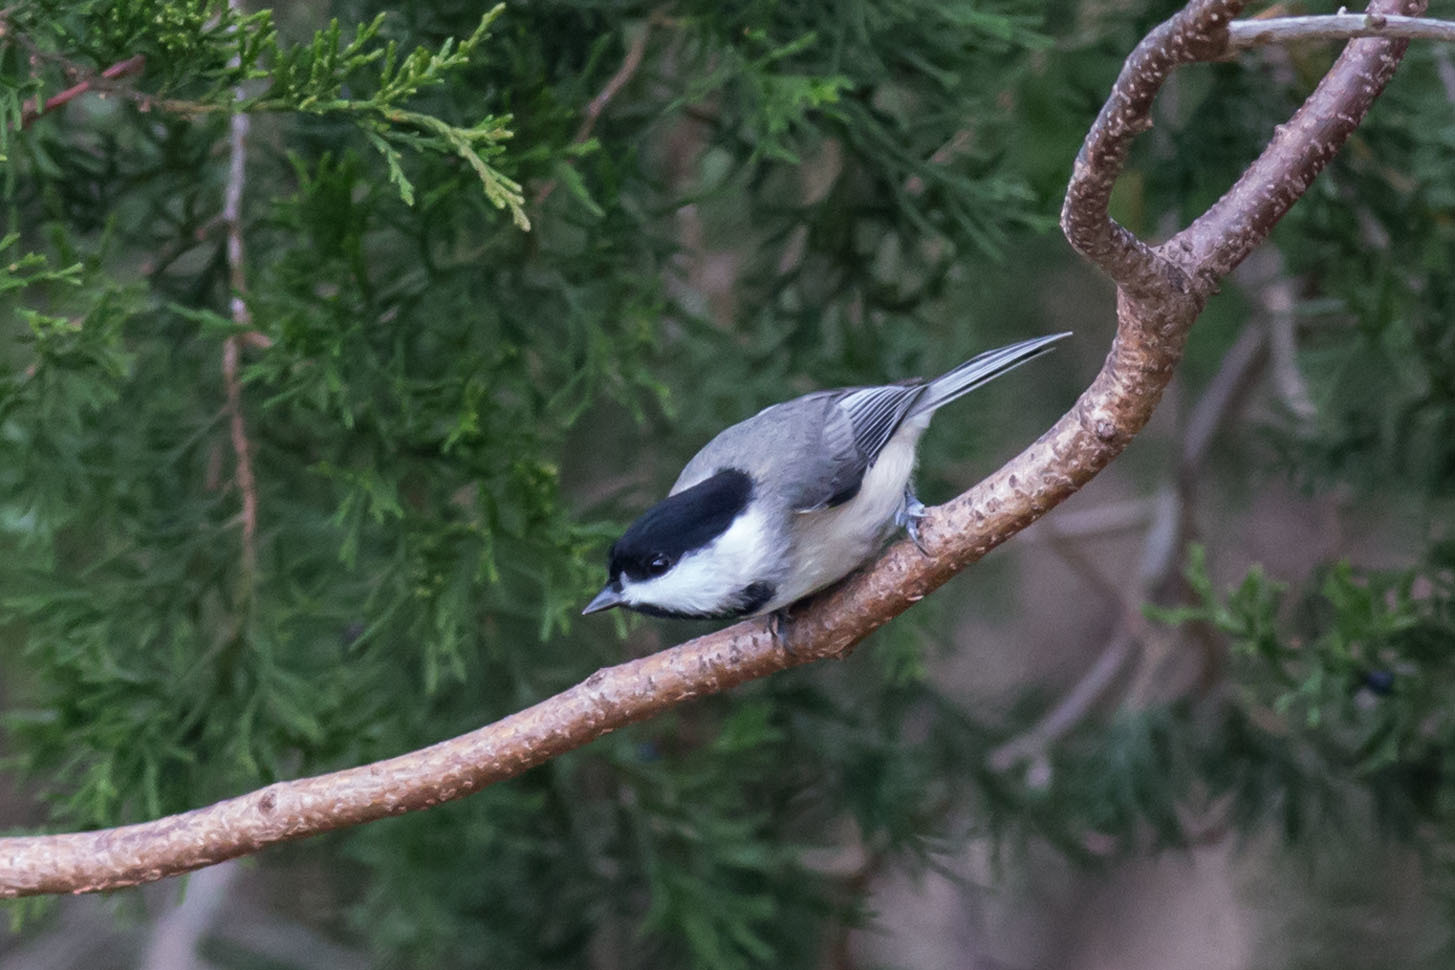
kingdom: Animalia
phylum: Chordata
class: Aves
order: Passeriformes
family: Paridae
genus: Poecile
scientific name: Poecile carolinensis
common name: Carolina chickadee
